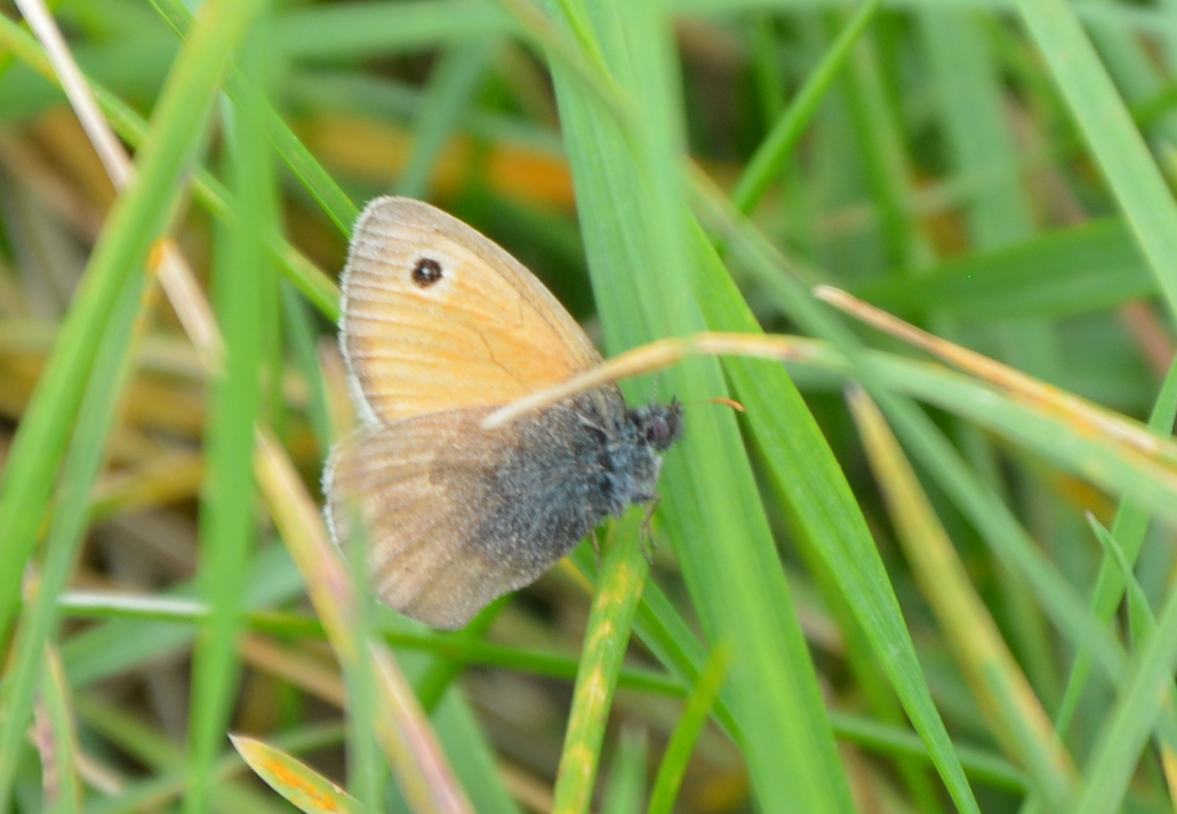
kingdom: Animalia
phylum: Arthropoda
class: Insecta
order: Lepidoptera
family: Nymphalidae
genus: Coenonympha
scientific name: Coenonympha pamphilus
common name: Small heath
